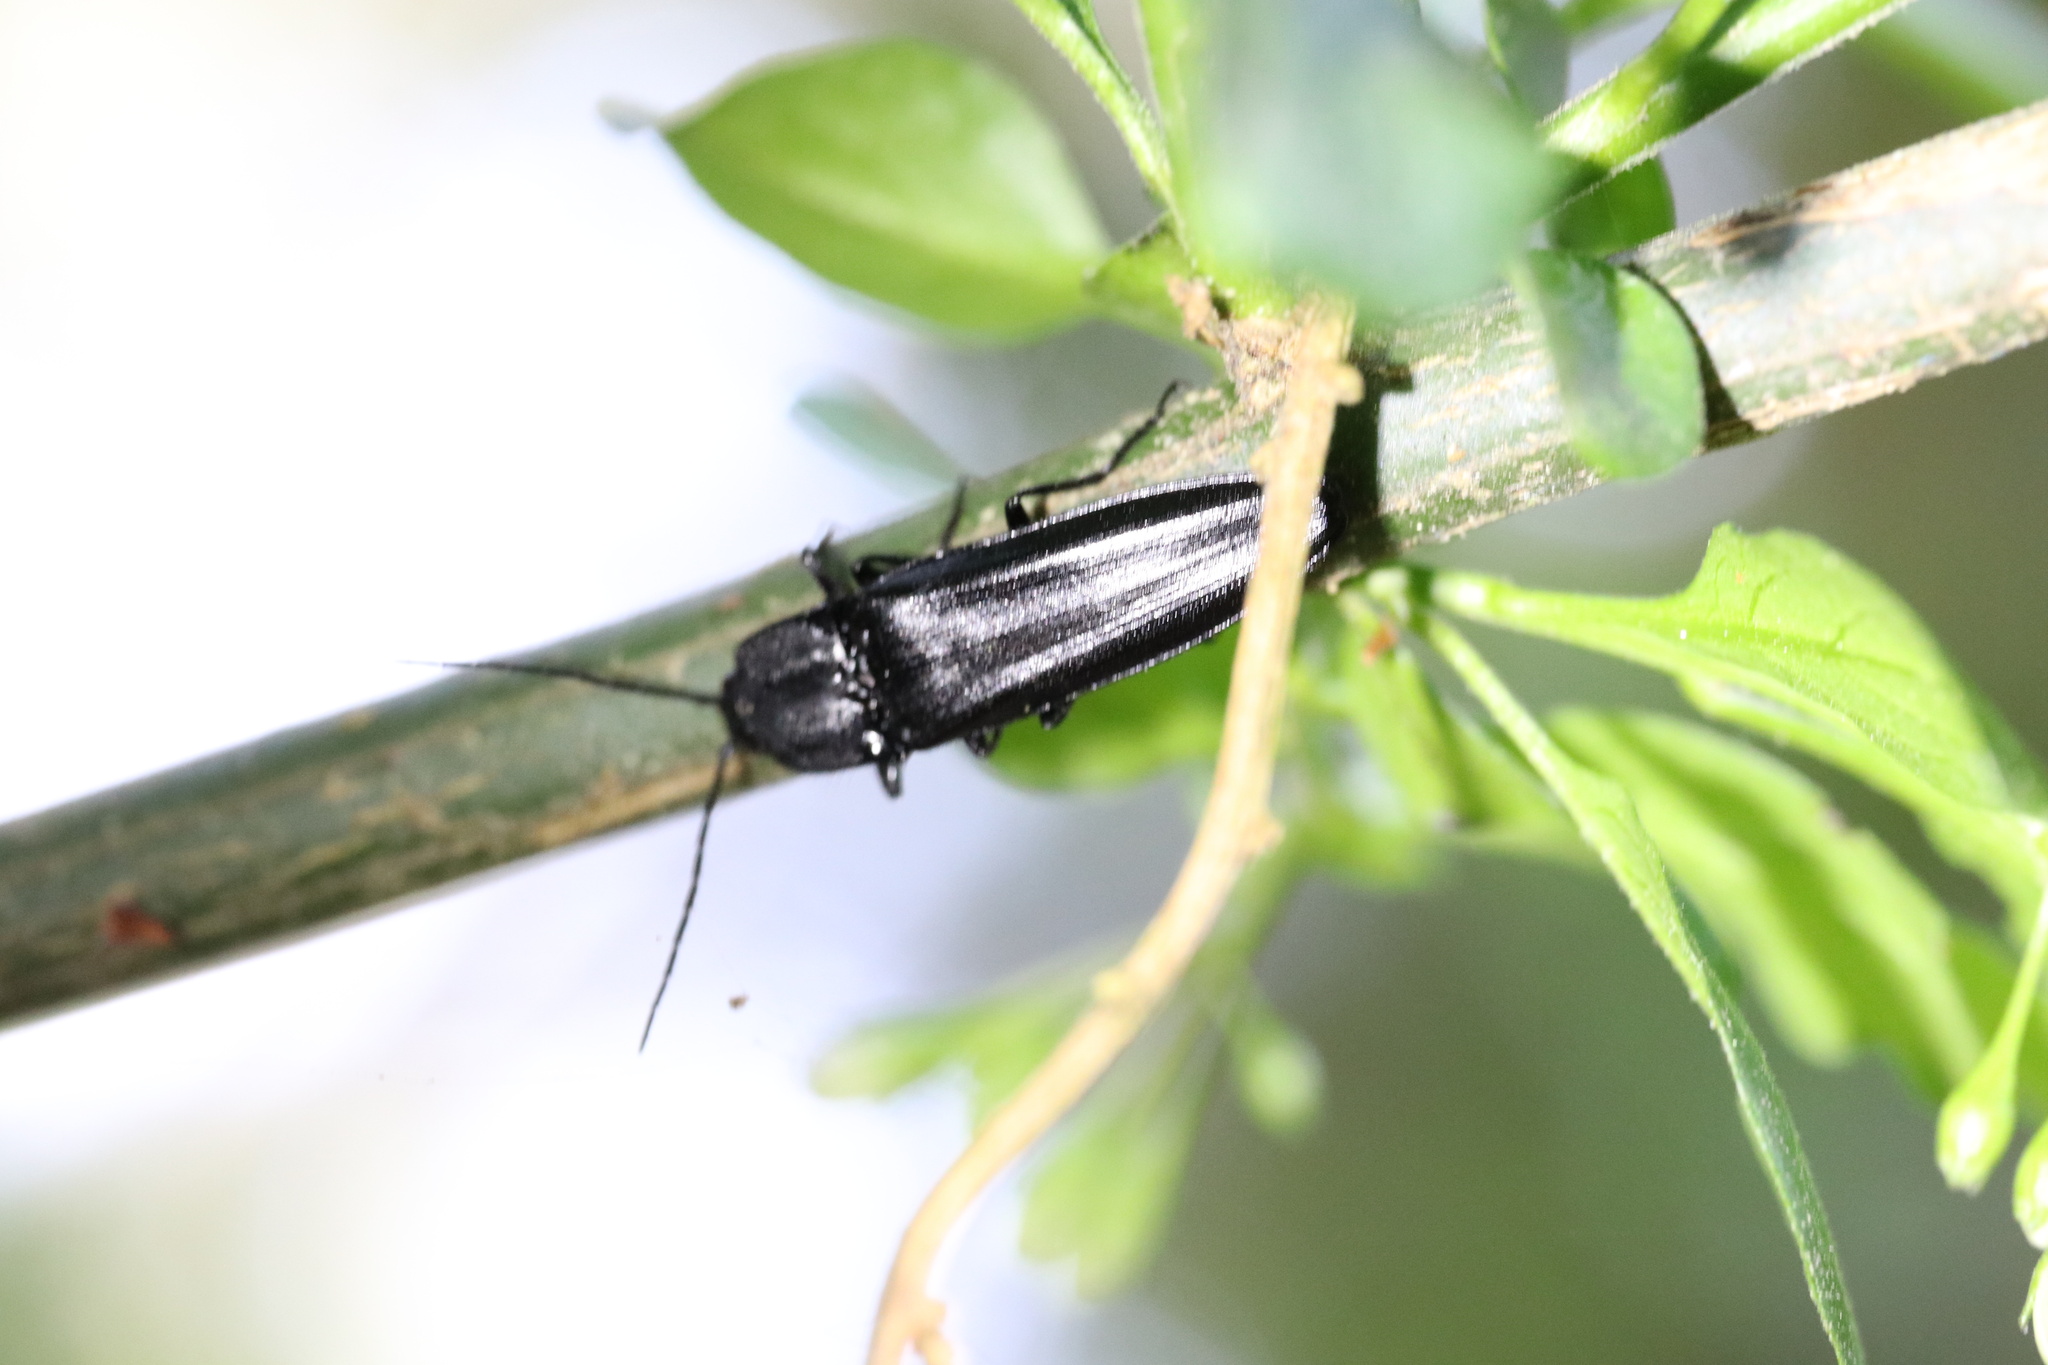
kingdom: Animalia
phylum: Arthropoda
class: Insecta
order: Coleoptera
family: Elateridae
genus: Tibionema
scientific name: Tibionema
